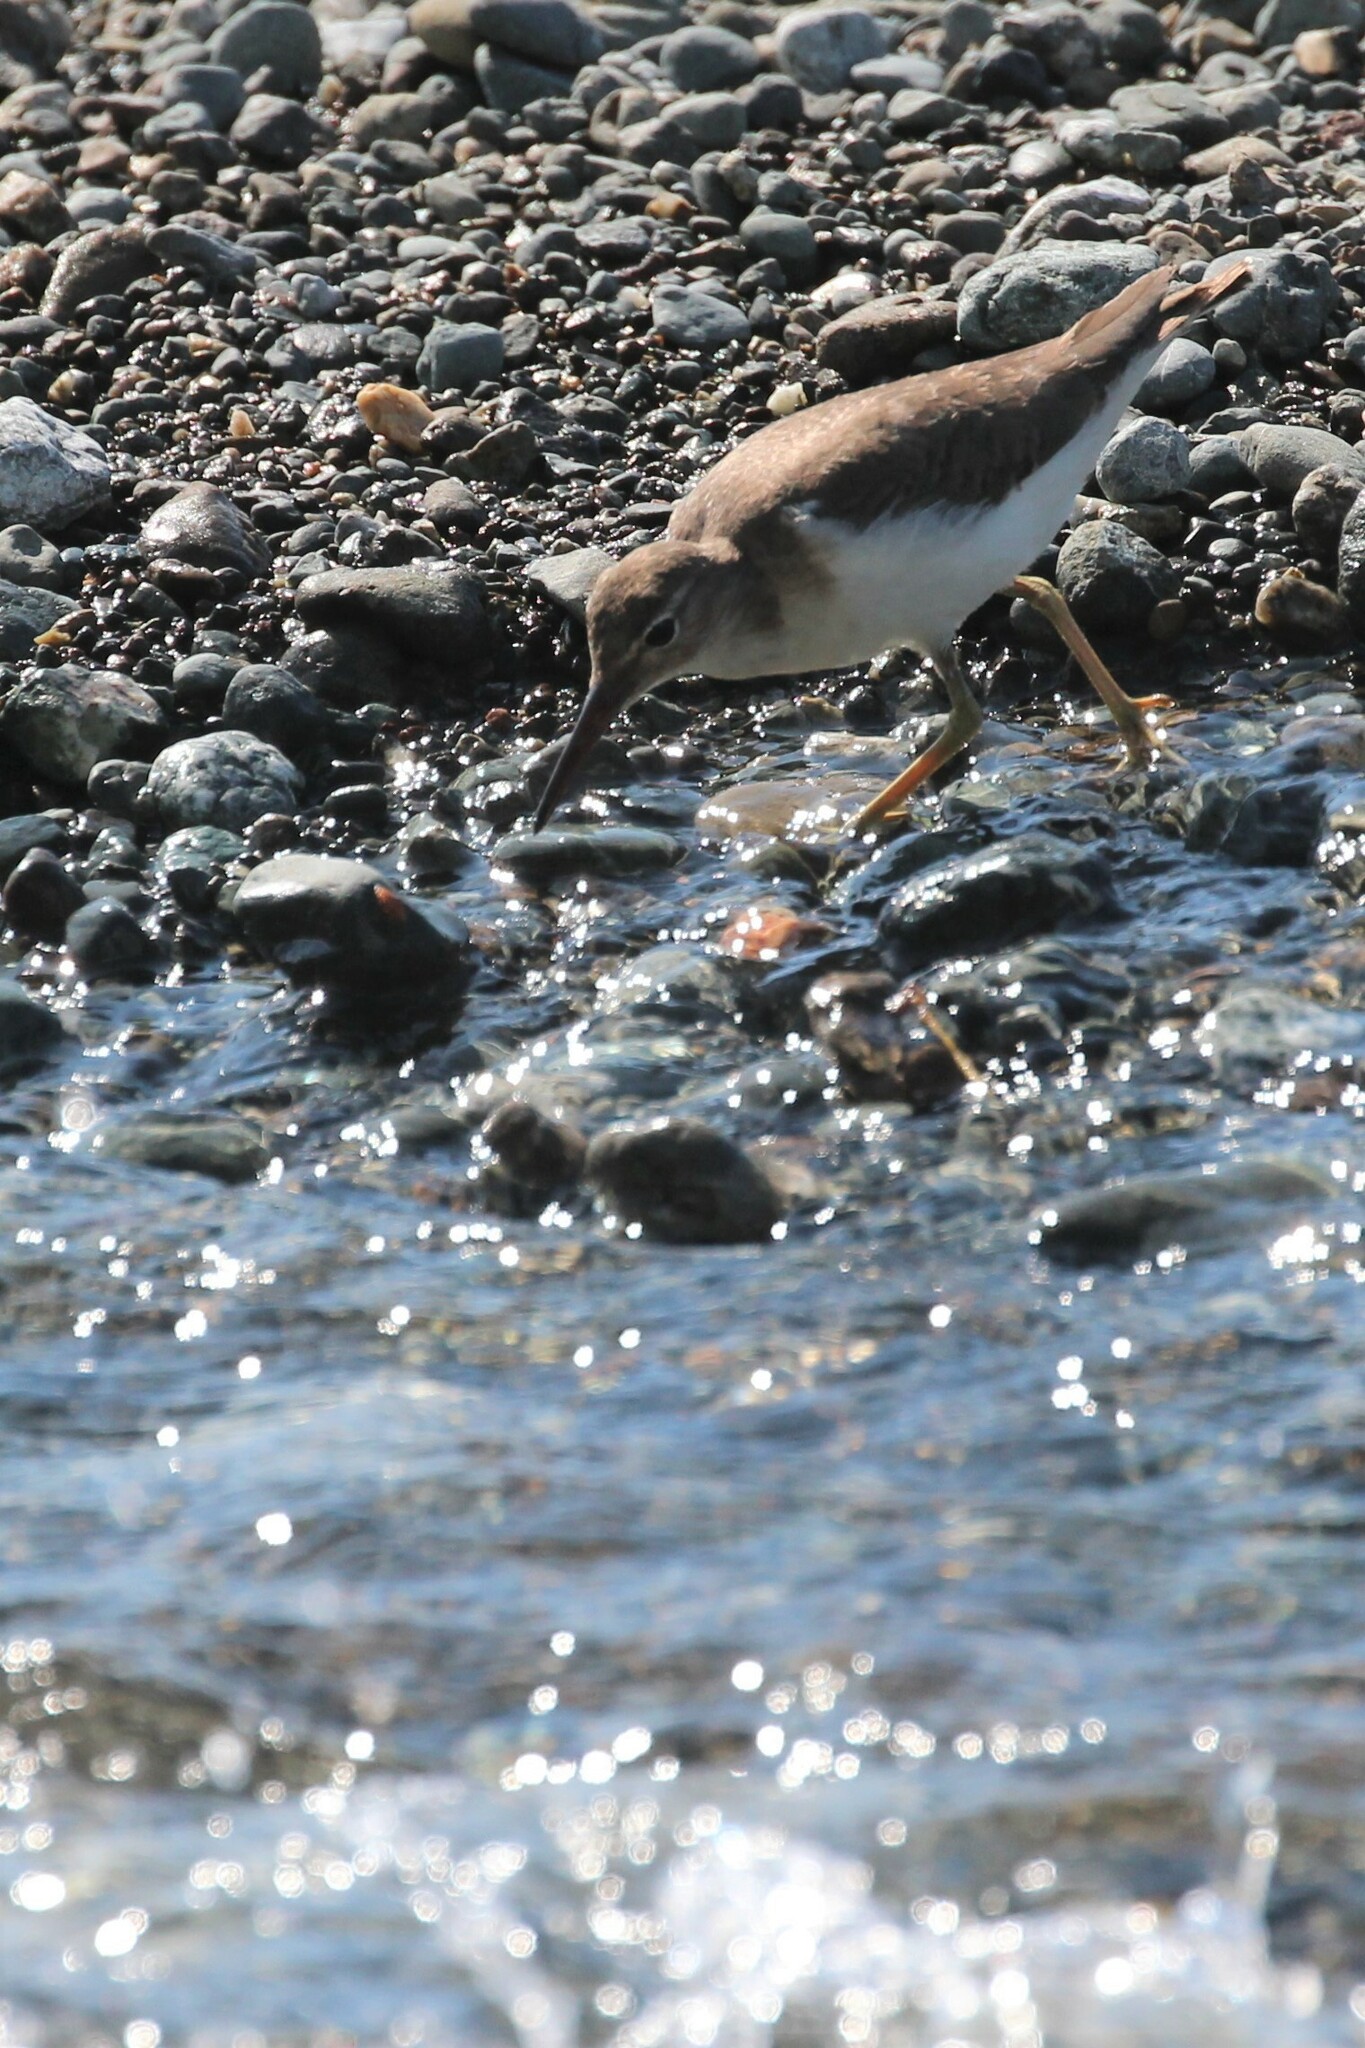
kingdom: Animalia
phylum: Chordata
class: Aves
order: Charadriiformes
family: Scolopacidae
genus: Actitis
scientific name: Actitis macularius
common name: Spotted sandpiper
